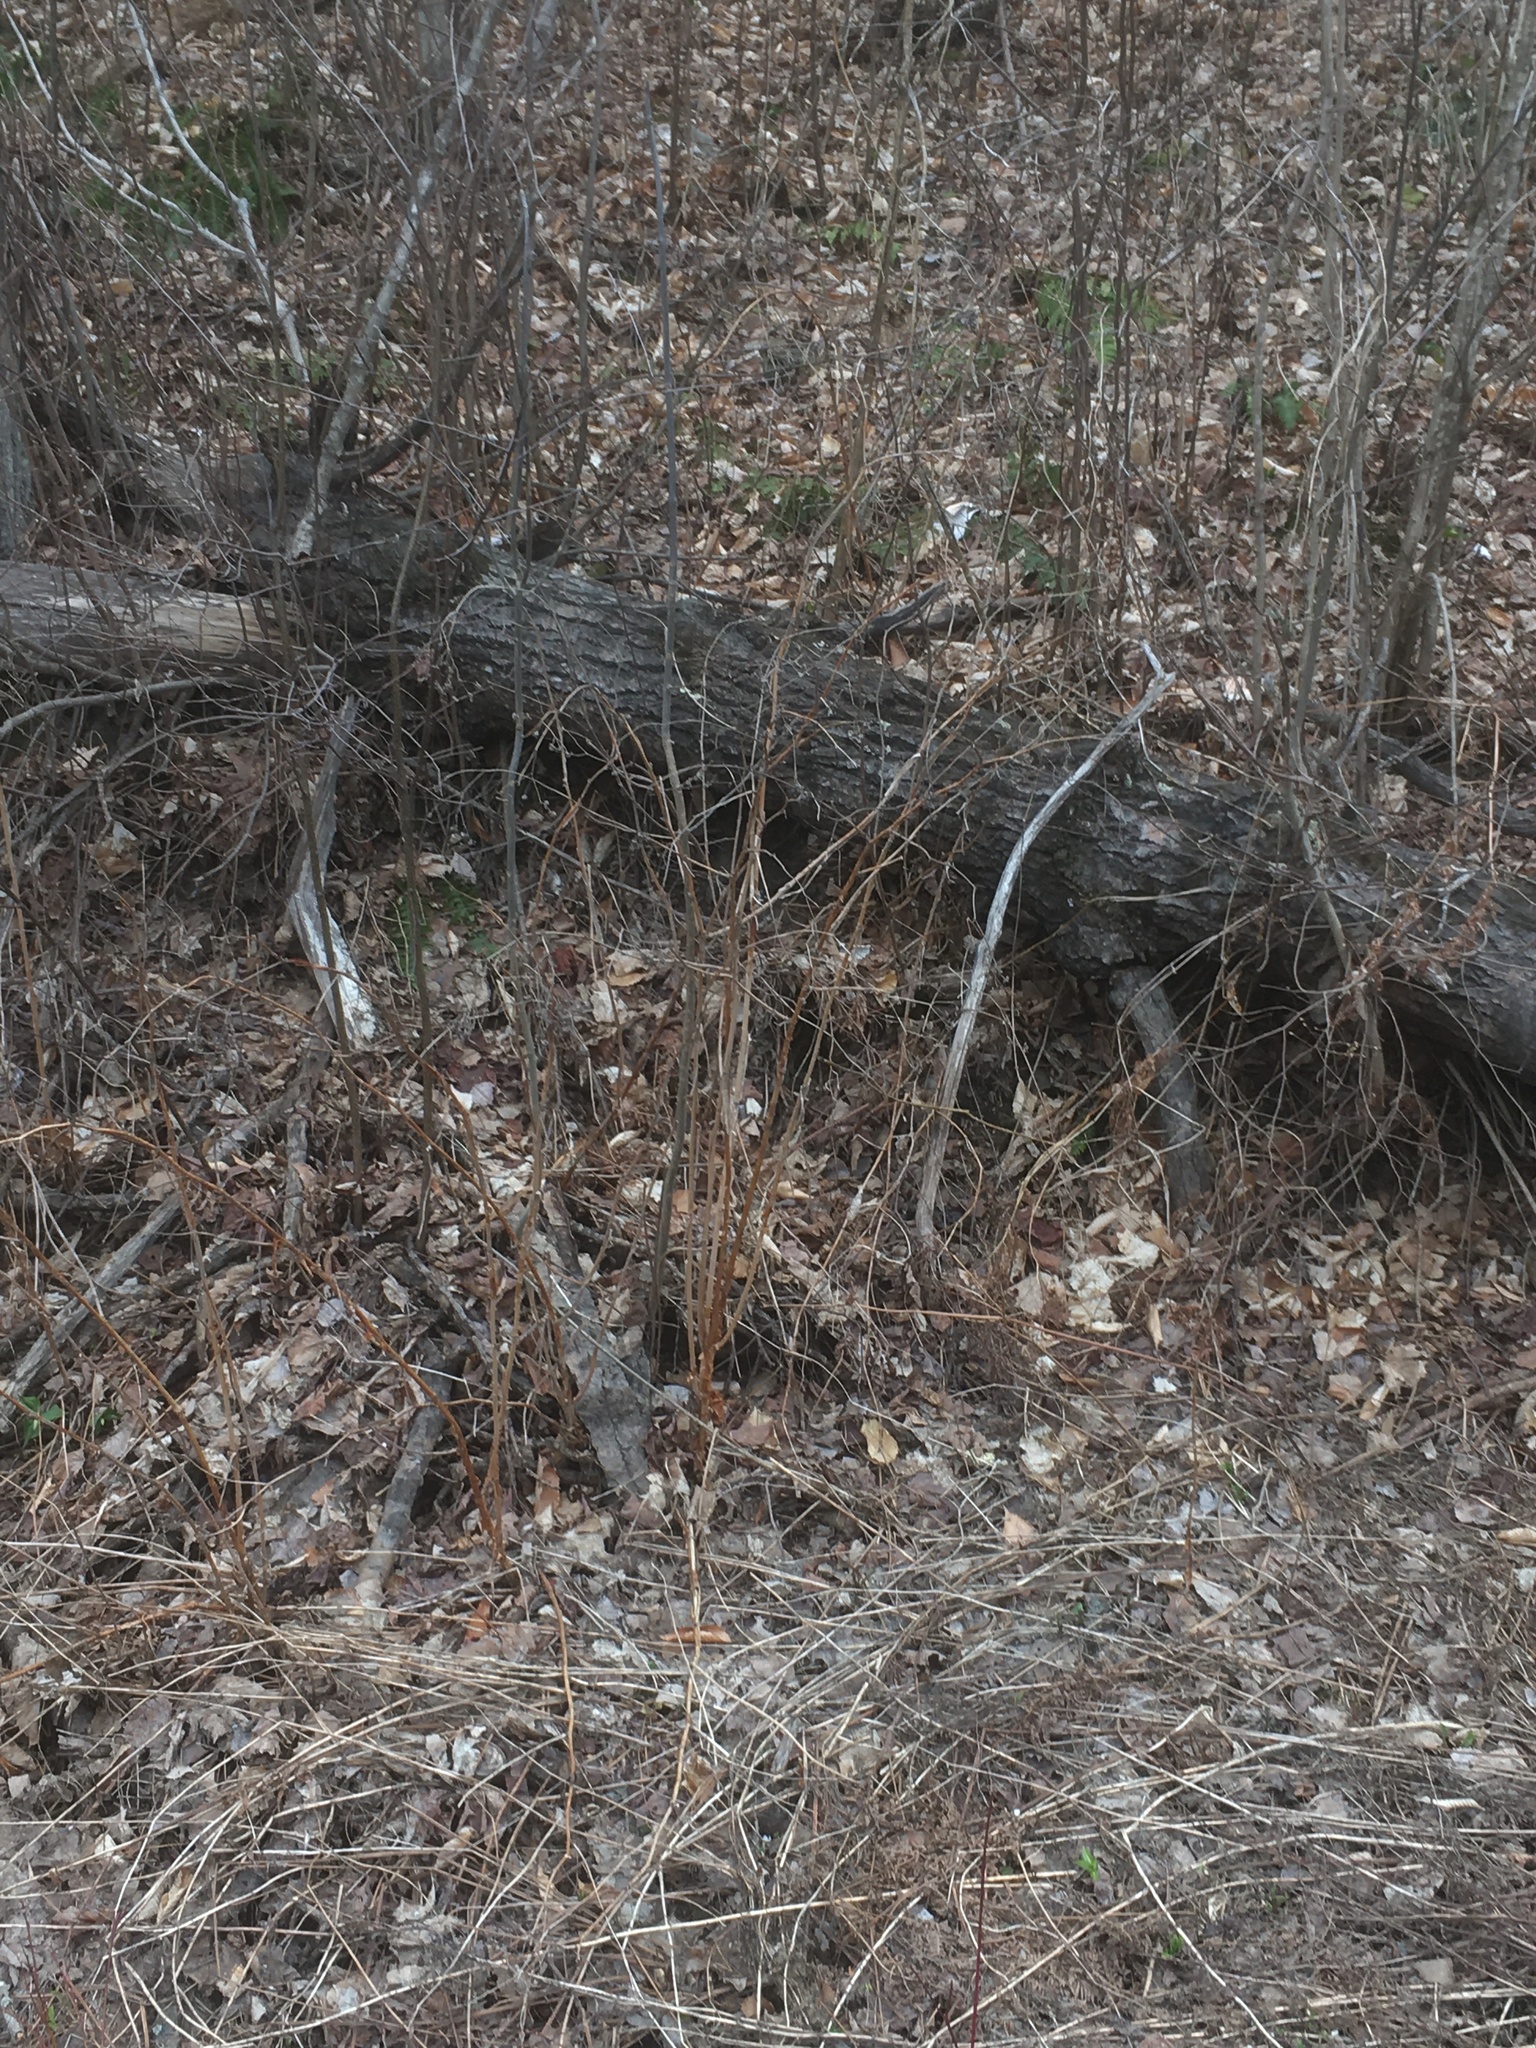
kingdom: Plantae
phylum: Tracheophyta
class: Magnoliopsida
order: Rosales
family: Rosaceae
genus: Rubus
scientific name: Rubus odoratus
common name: Purple-flowered raspberry
